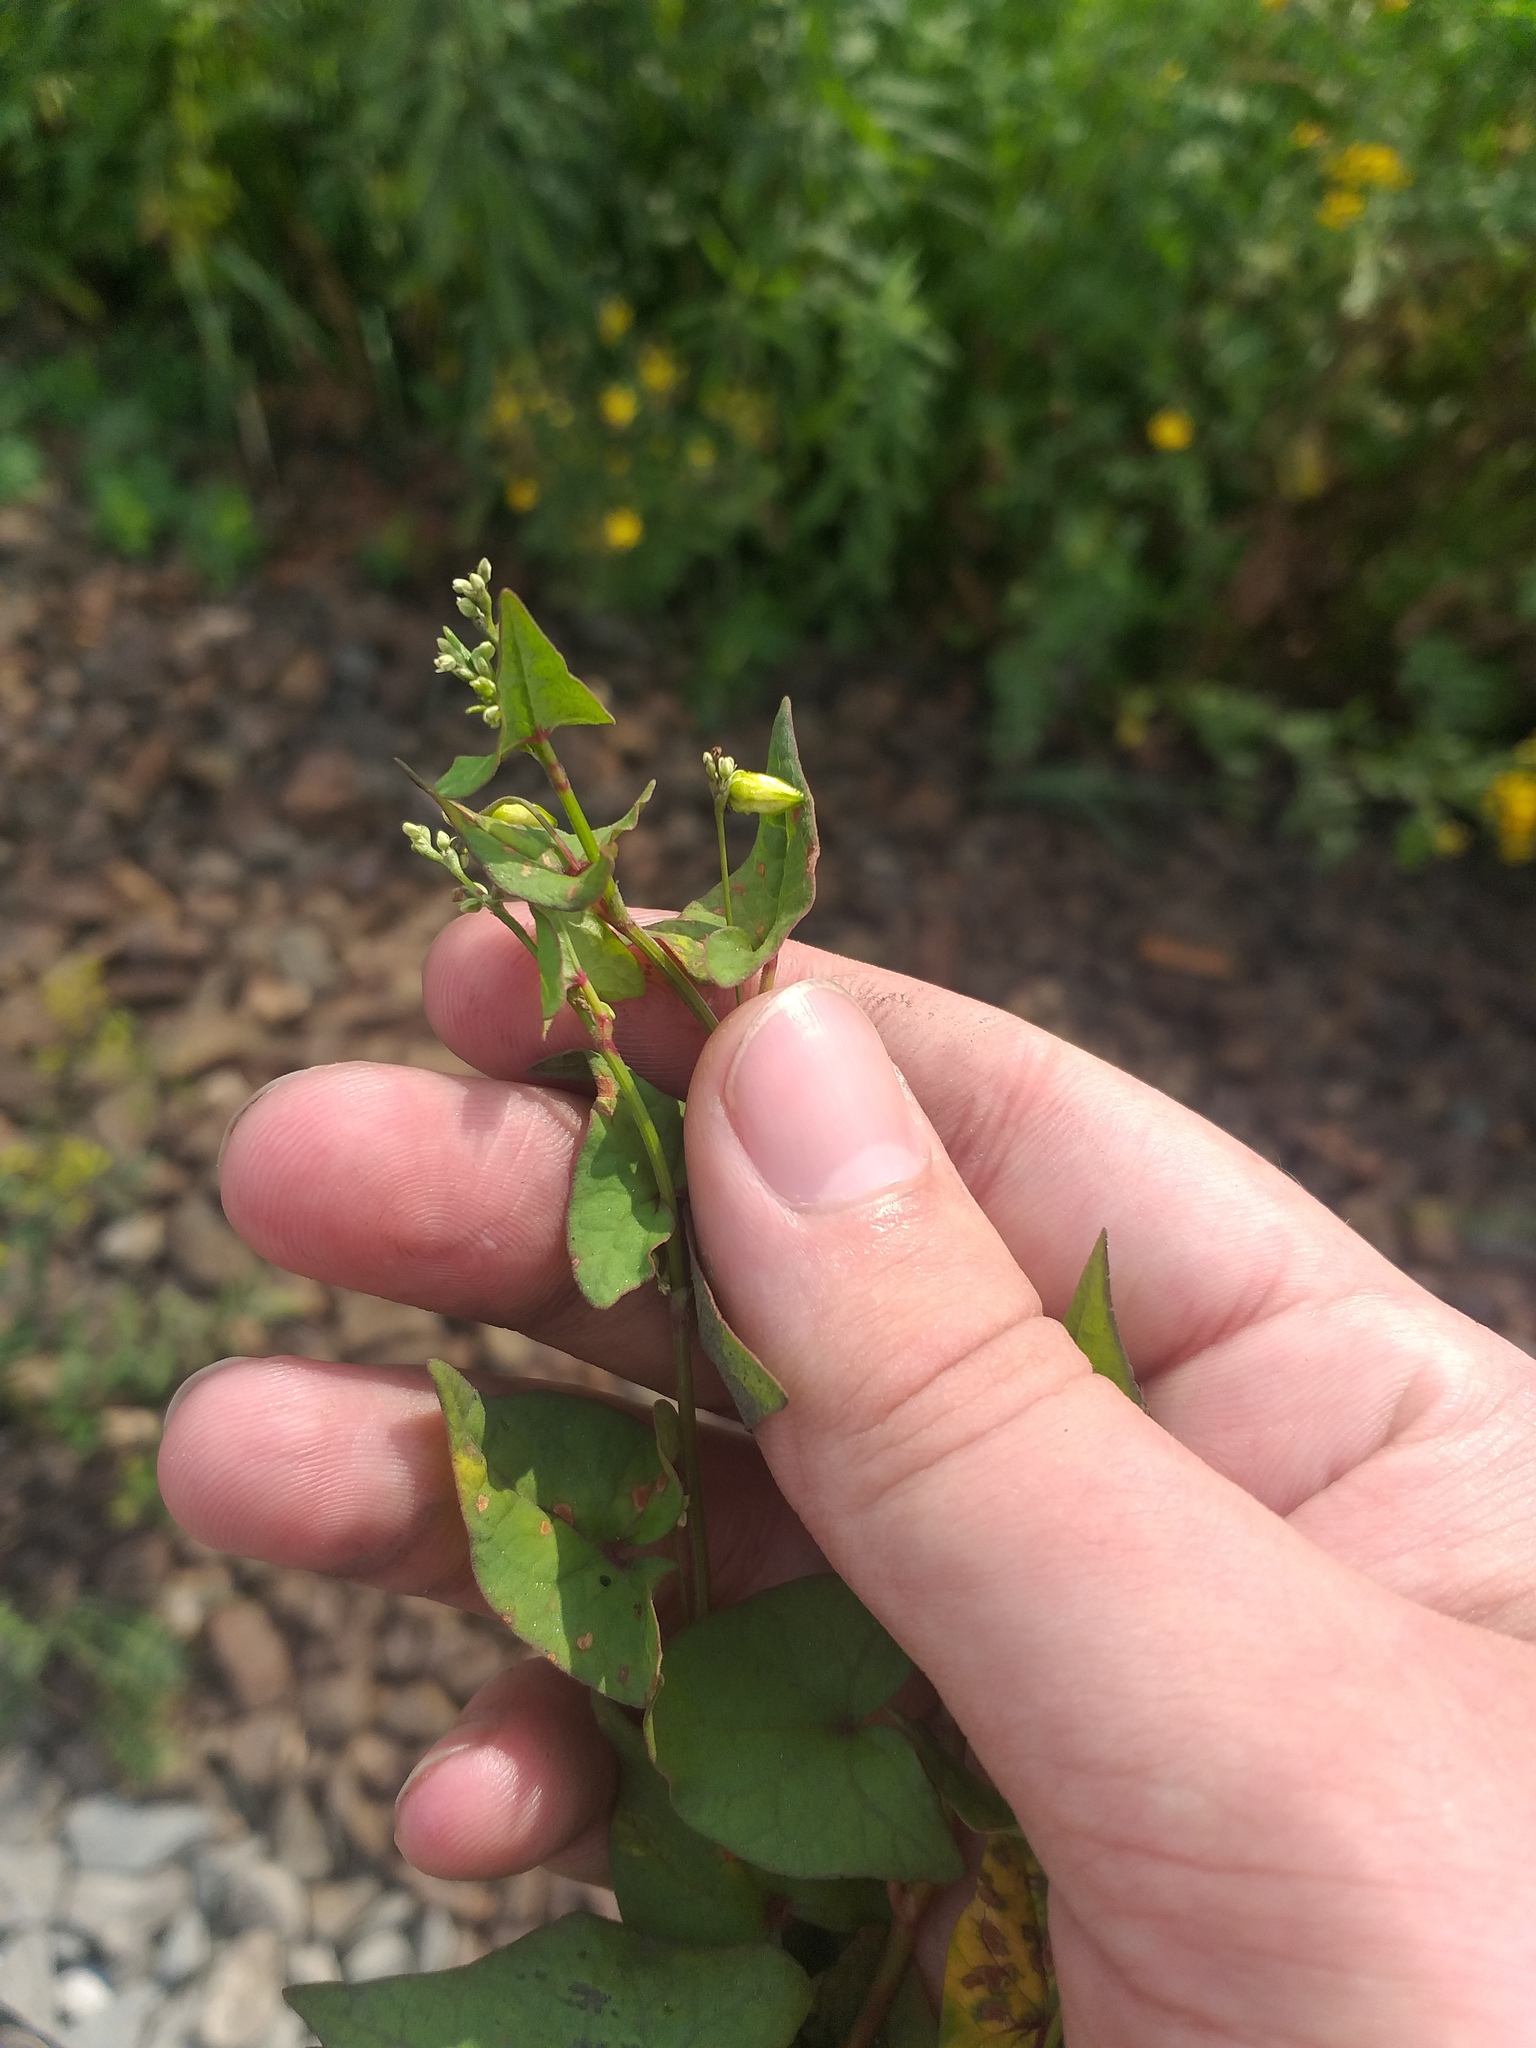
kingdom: Plantae
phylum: Tracheophyta
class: Magnoliopsida
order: Caryophyllales
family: Polygonaceae
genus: Fagopyrum
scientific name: Fagopyrum tataricum
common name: Green buckwheat
